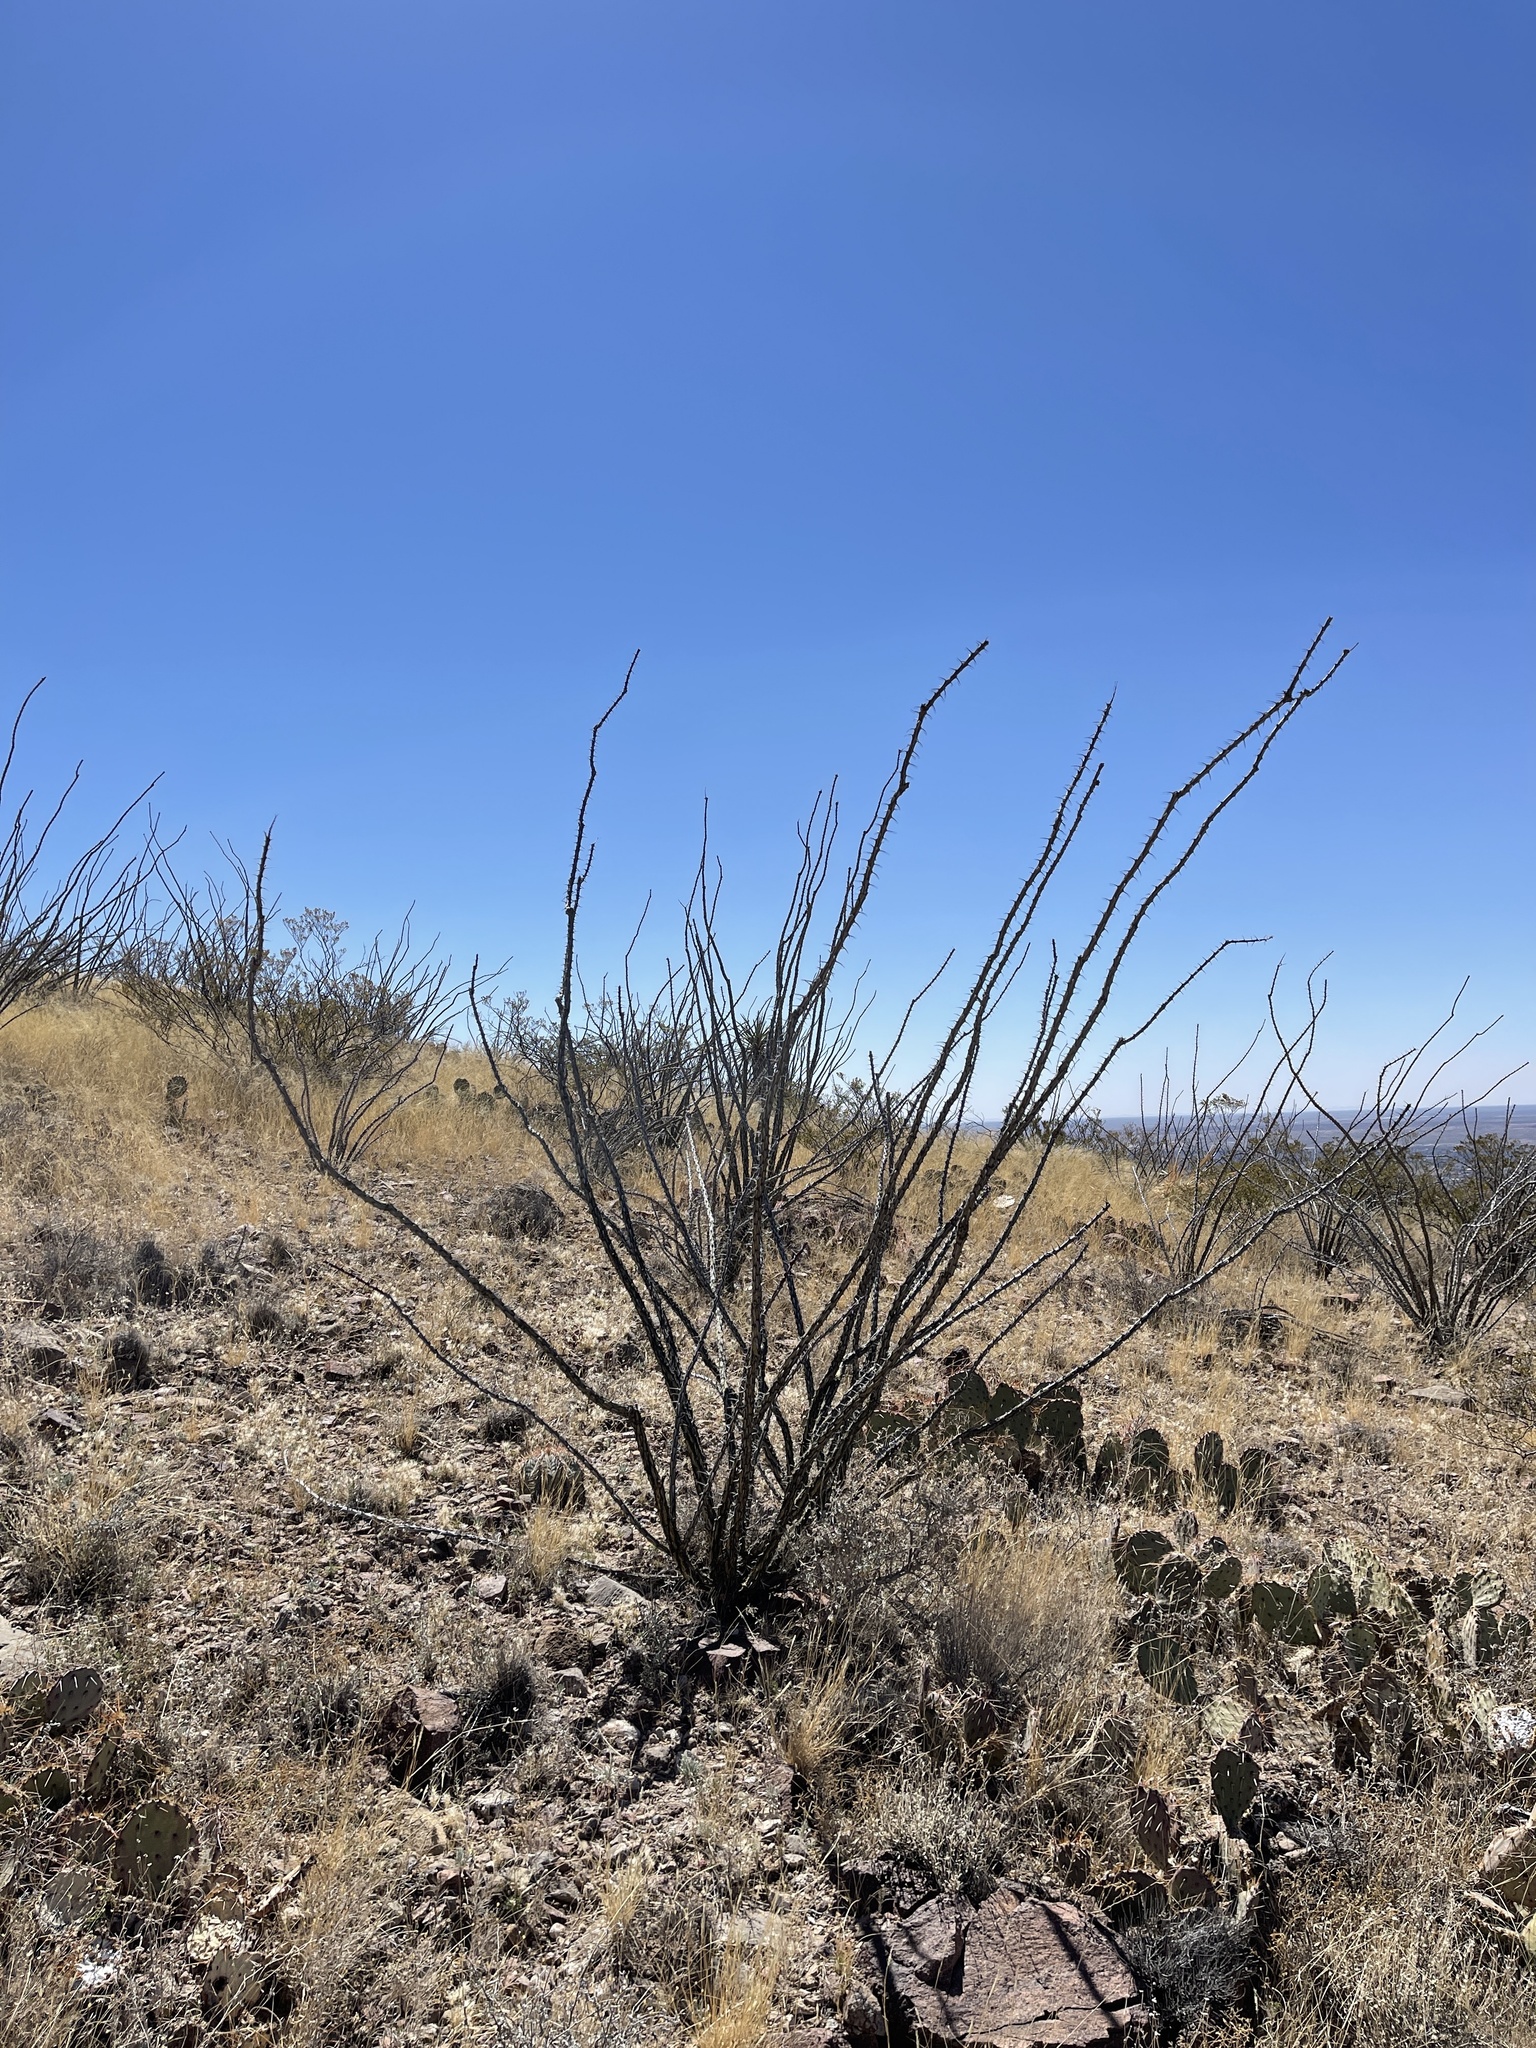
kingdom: Plantae
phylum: Tracheophyta
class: Magnoliopsida
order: Ericales
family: Fouquieriaceae
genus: Fouquieria
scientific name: Fouquieria splendens
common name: Vine-cactus
